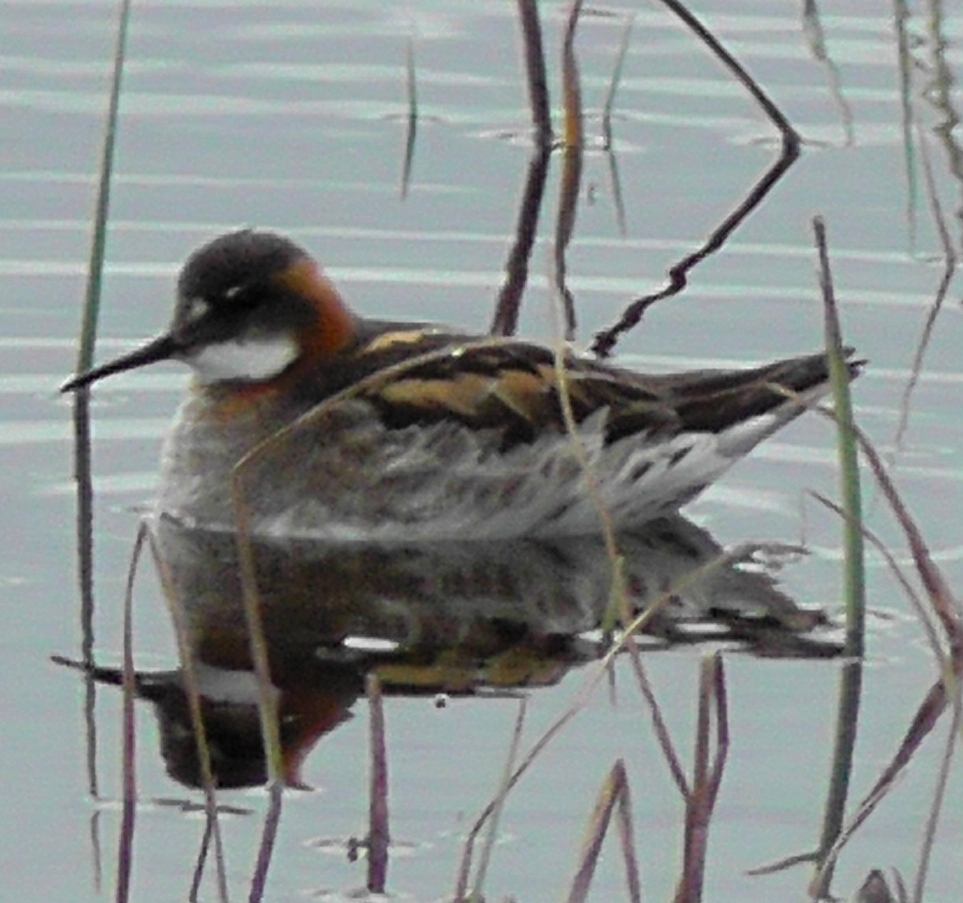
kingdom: Animalia
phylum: Chordata
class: Aves
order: Charadriiformes
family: Scolopacidae
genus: Phalaropus
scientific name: Phalaropus lobatus
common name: Red-necked phalarope
